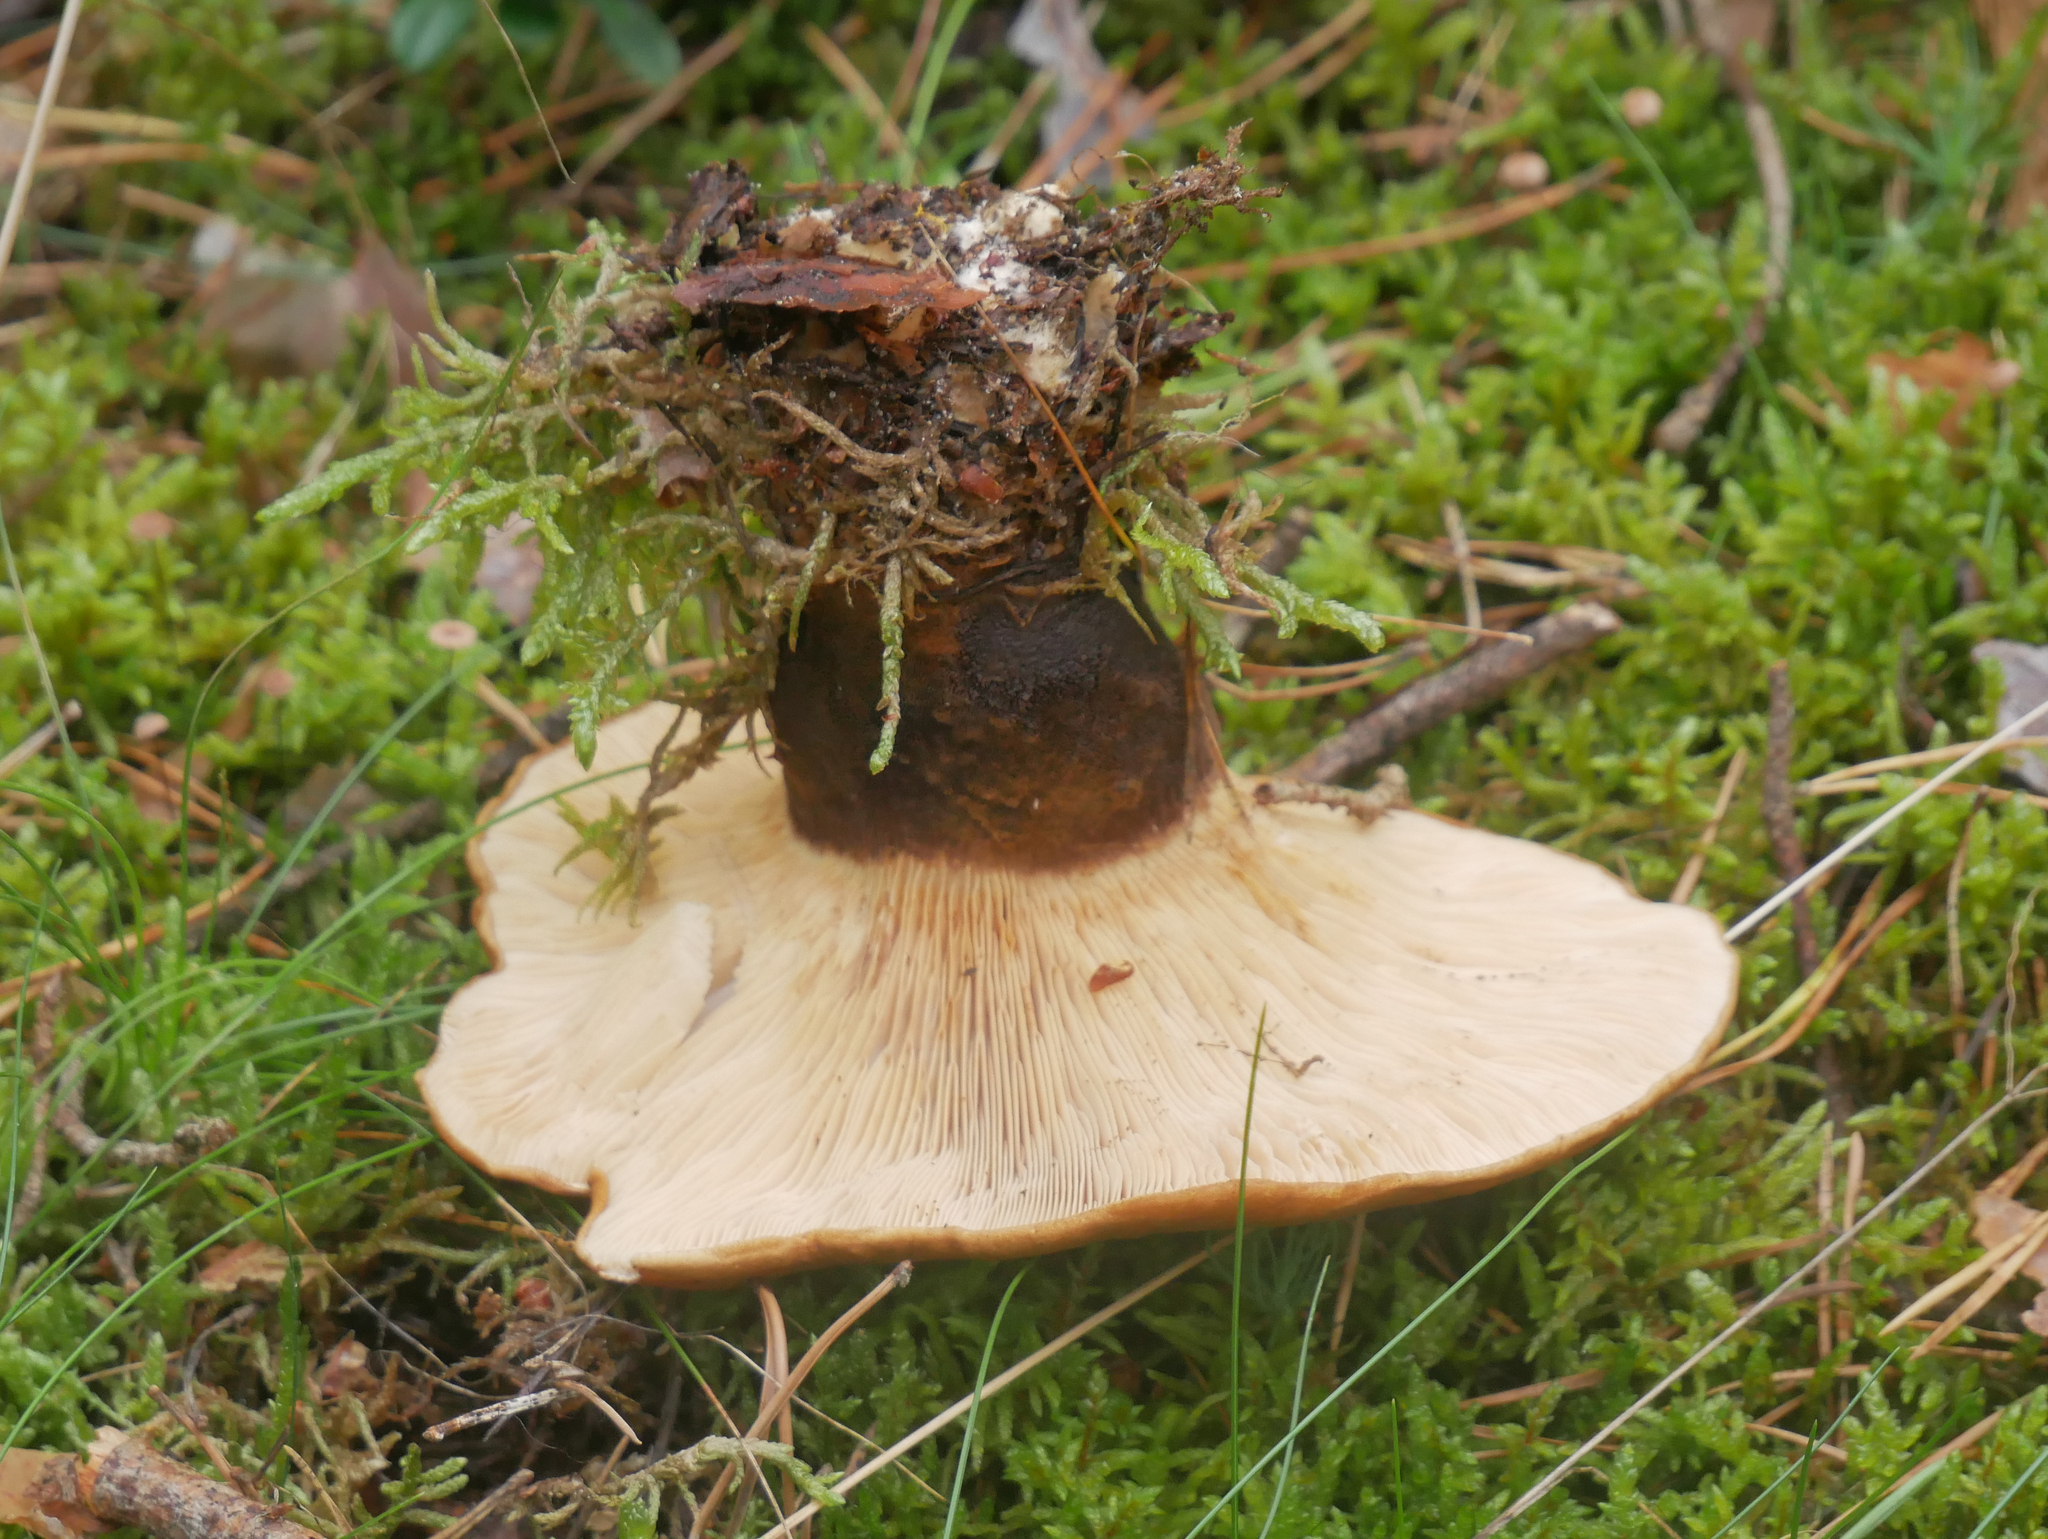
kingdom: Fungi
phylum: Basidiomycota
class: Agaricomycetes
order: Boletales
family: Tapinellaceae
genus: Tapinella
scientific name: Tapinella atrotomentosa
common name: Velvet rollrim
